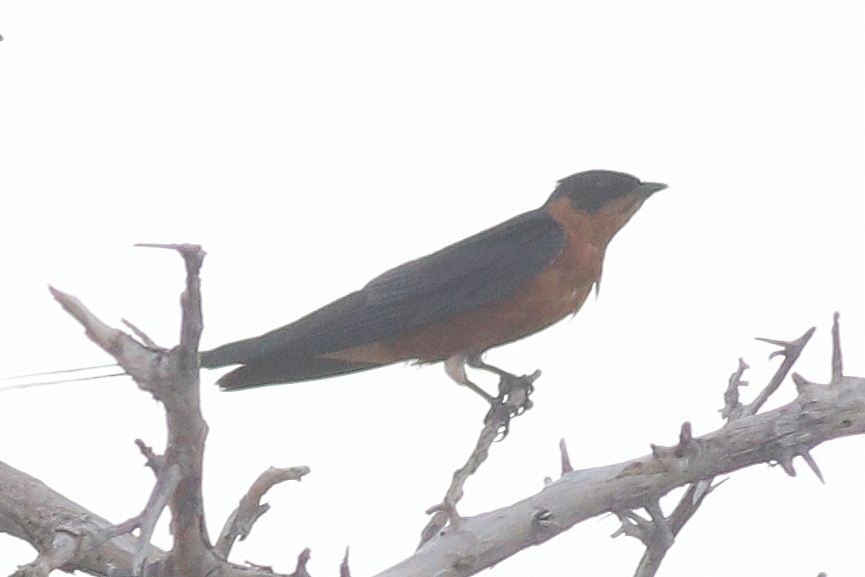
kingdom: Animalia
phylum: Chordata
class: Aves
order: Passeriformes
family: Hirundinidae
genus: Cecropis
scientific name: Cecropis semirufa
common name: Red-breasted swallow
